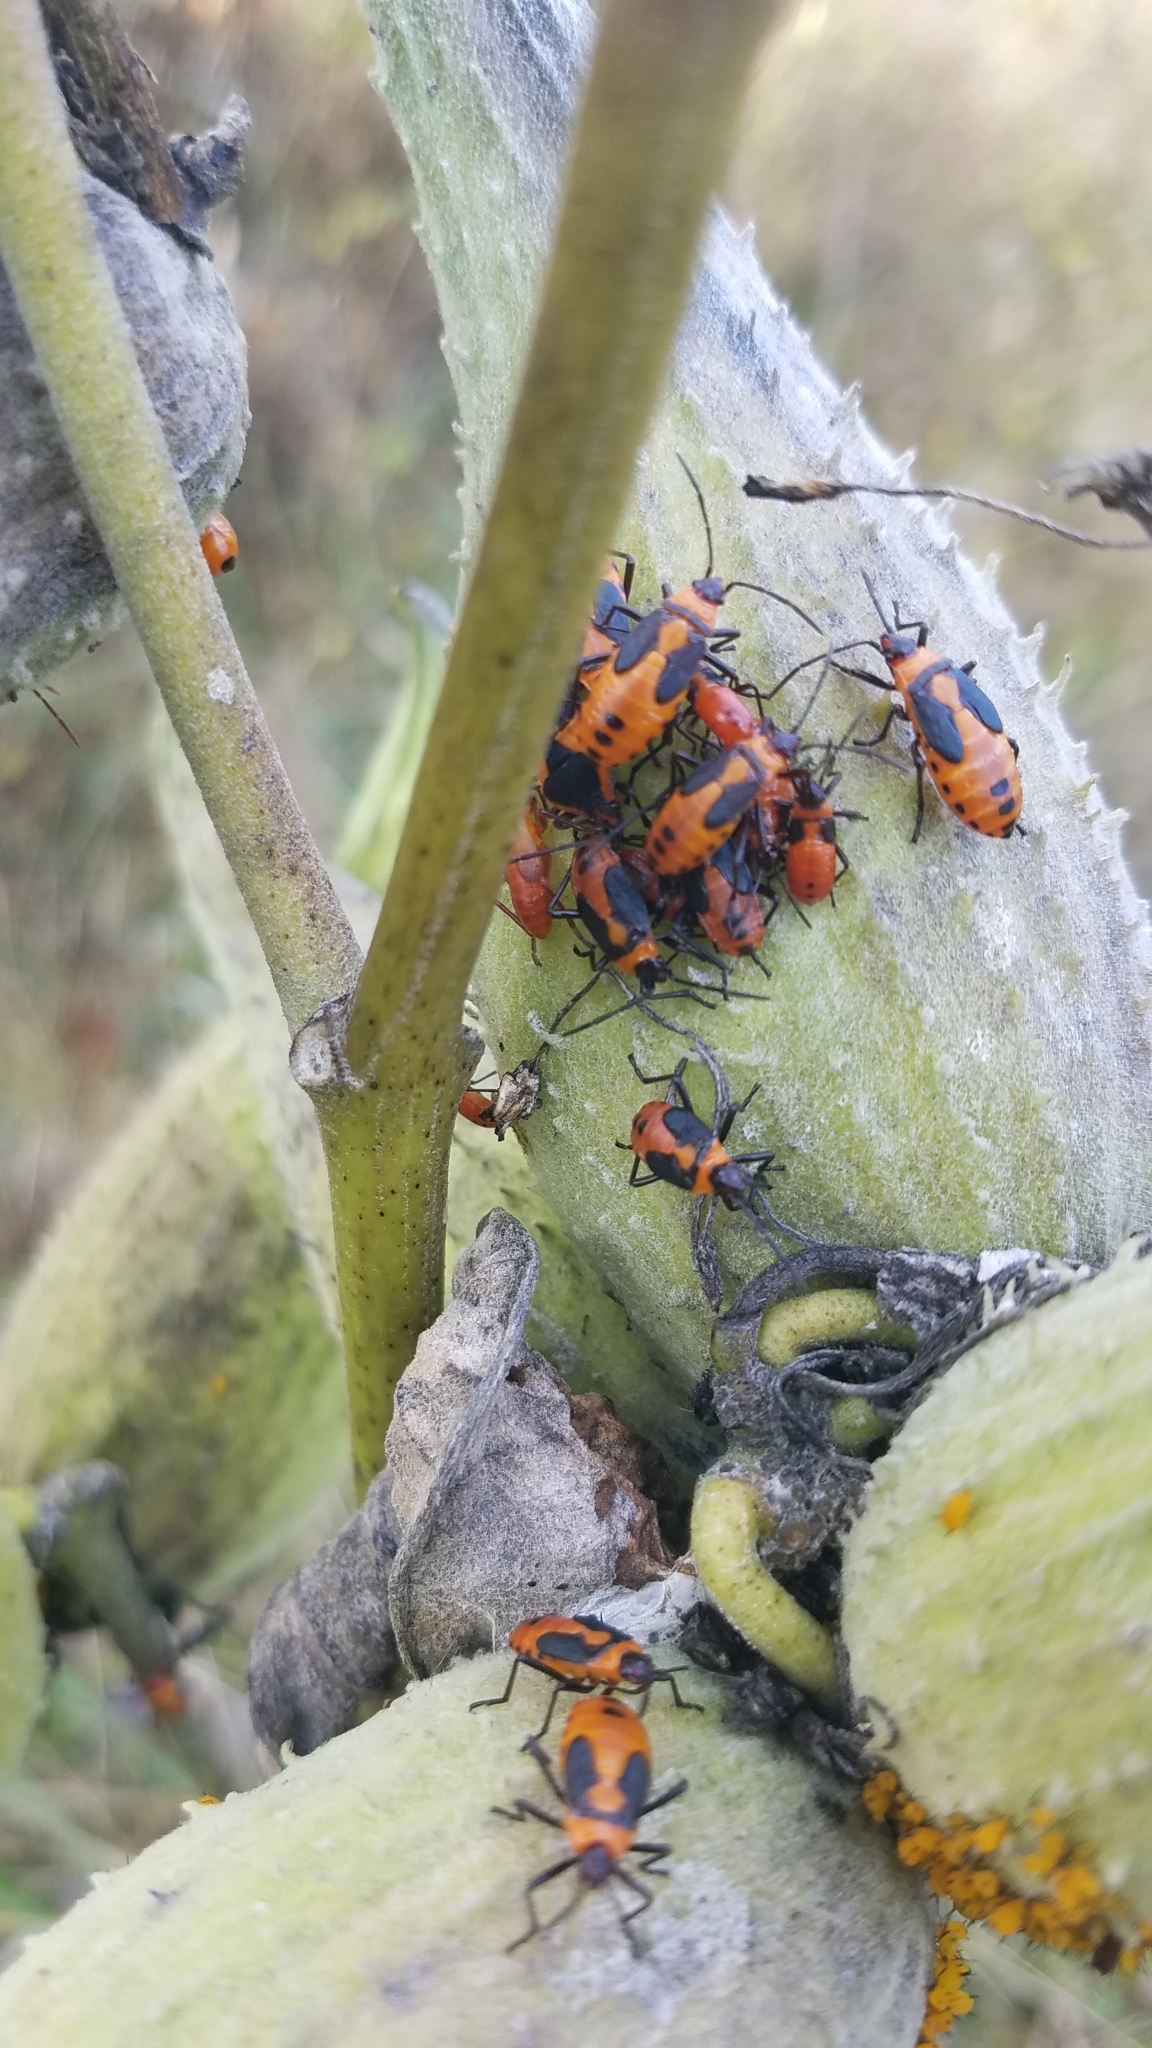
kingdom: Animalia
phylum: Arthropoda
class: Insecta
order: Hemiptera
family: Lygaeidae
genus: Oncopeltus
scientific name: Oncopeltus fasciatus
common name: Large milkweed bug
